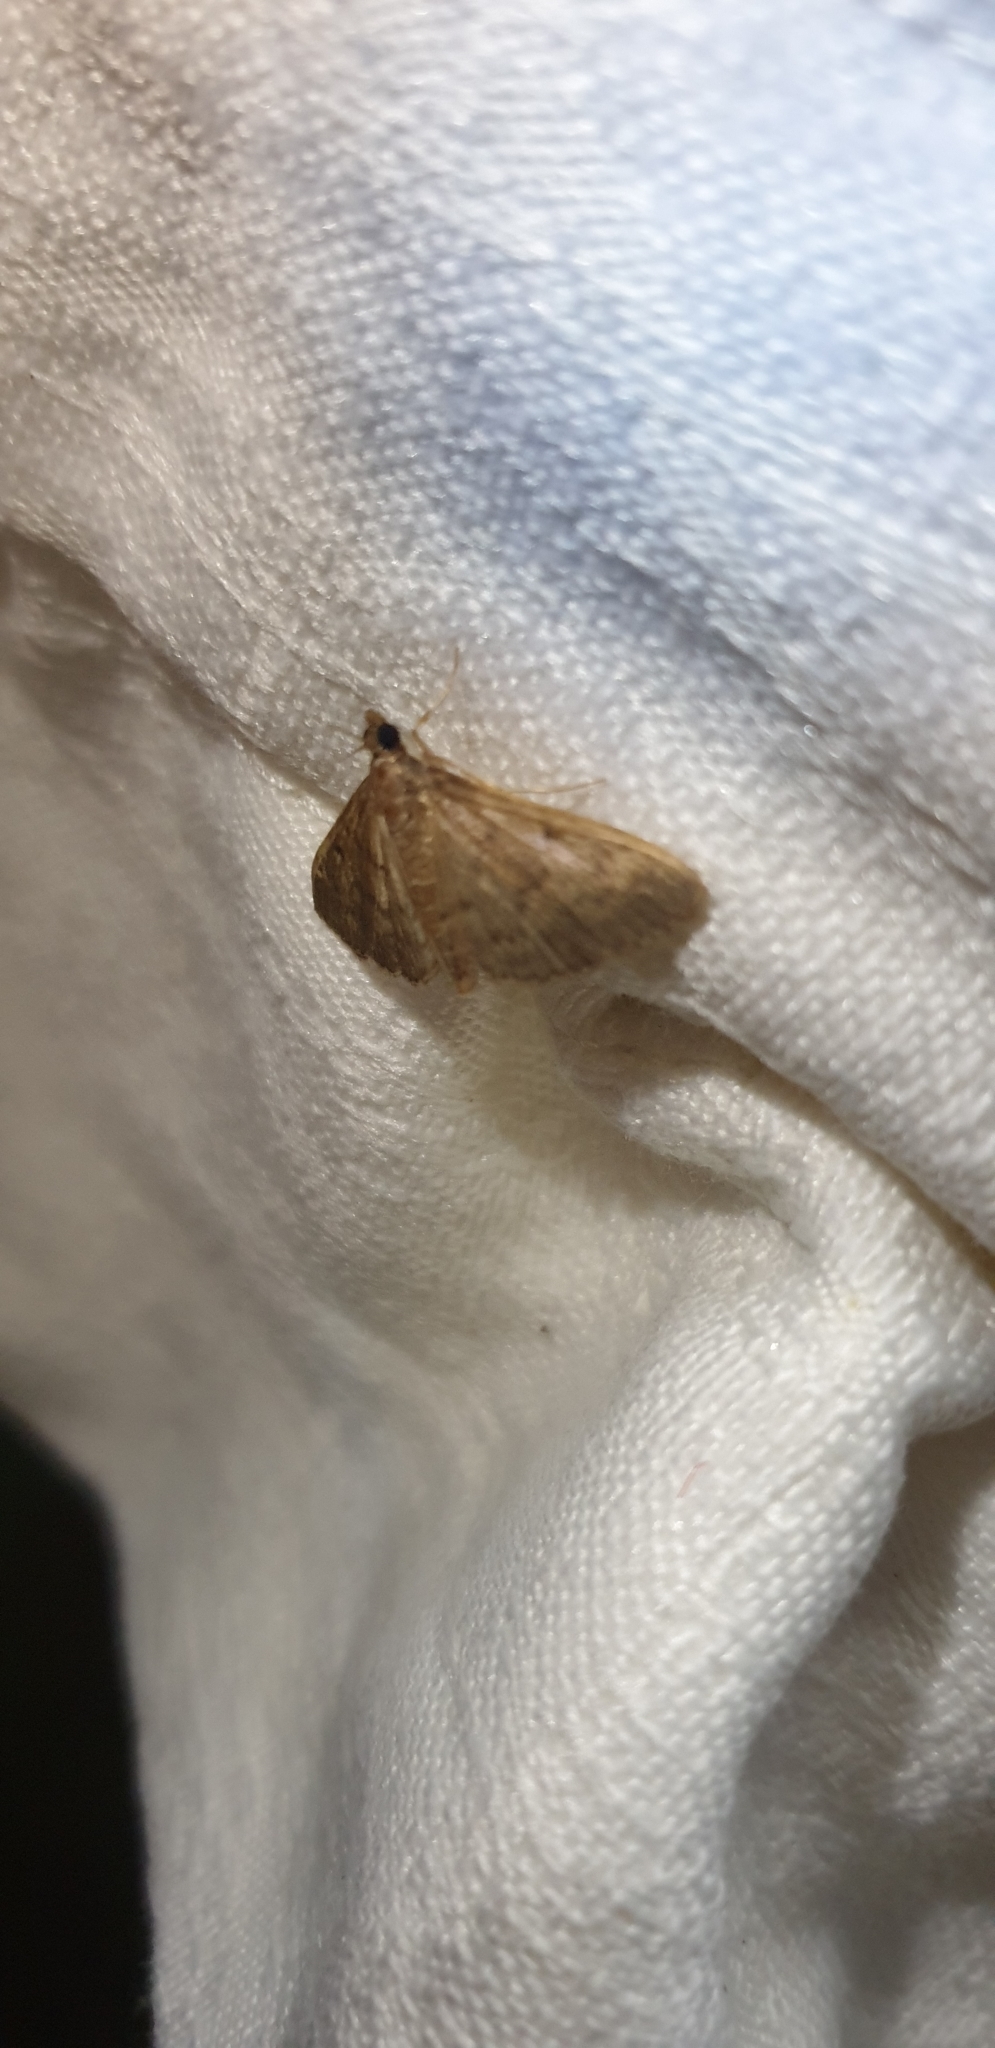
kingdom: Animalia
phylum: Arthropoda
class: Insecta
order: Lepidoptera
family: Crambidae
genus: Herpetogramma
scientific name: Herpetogramma licarsisalis
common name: Grass webworm
